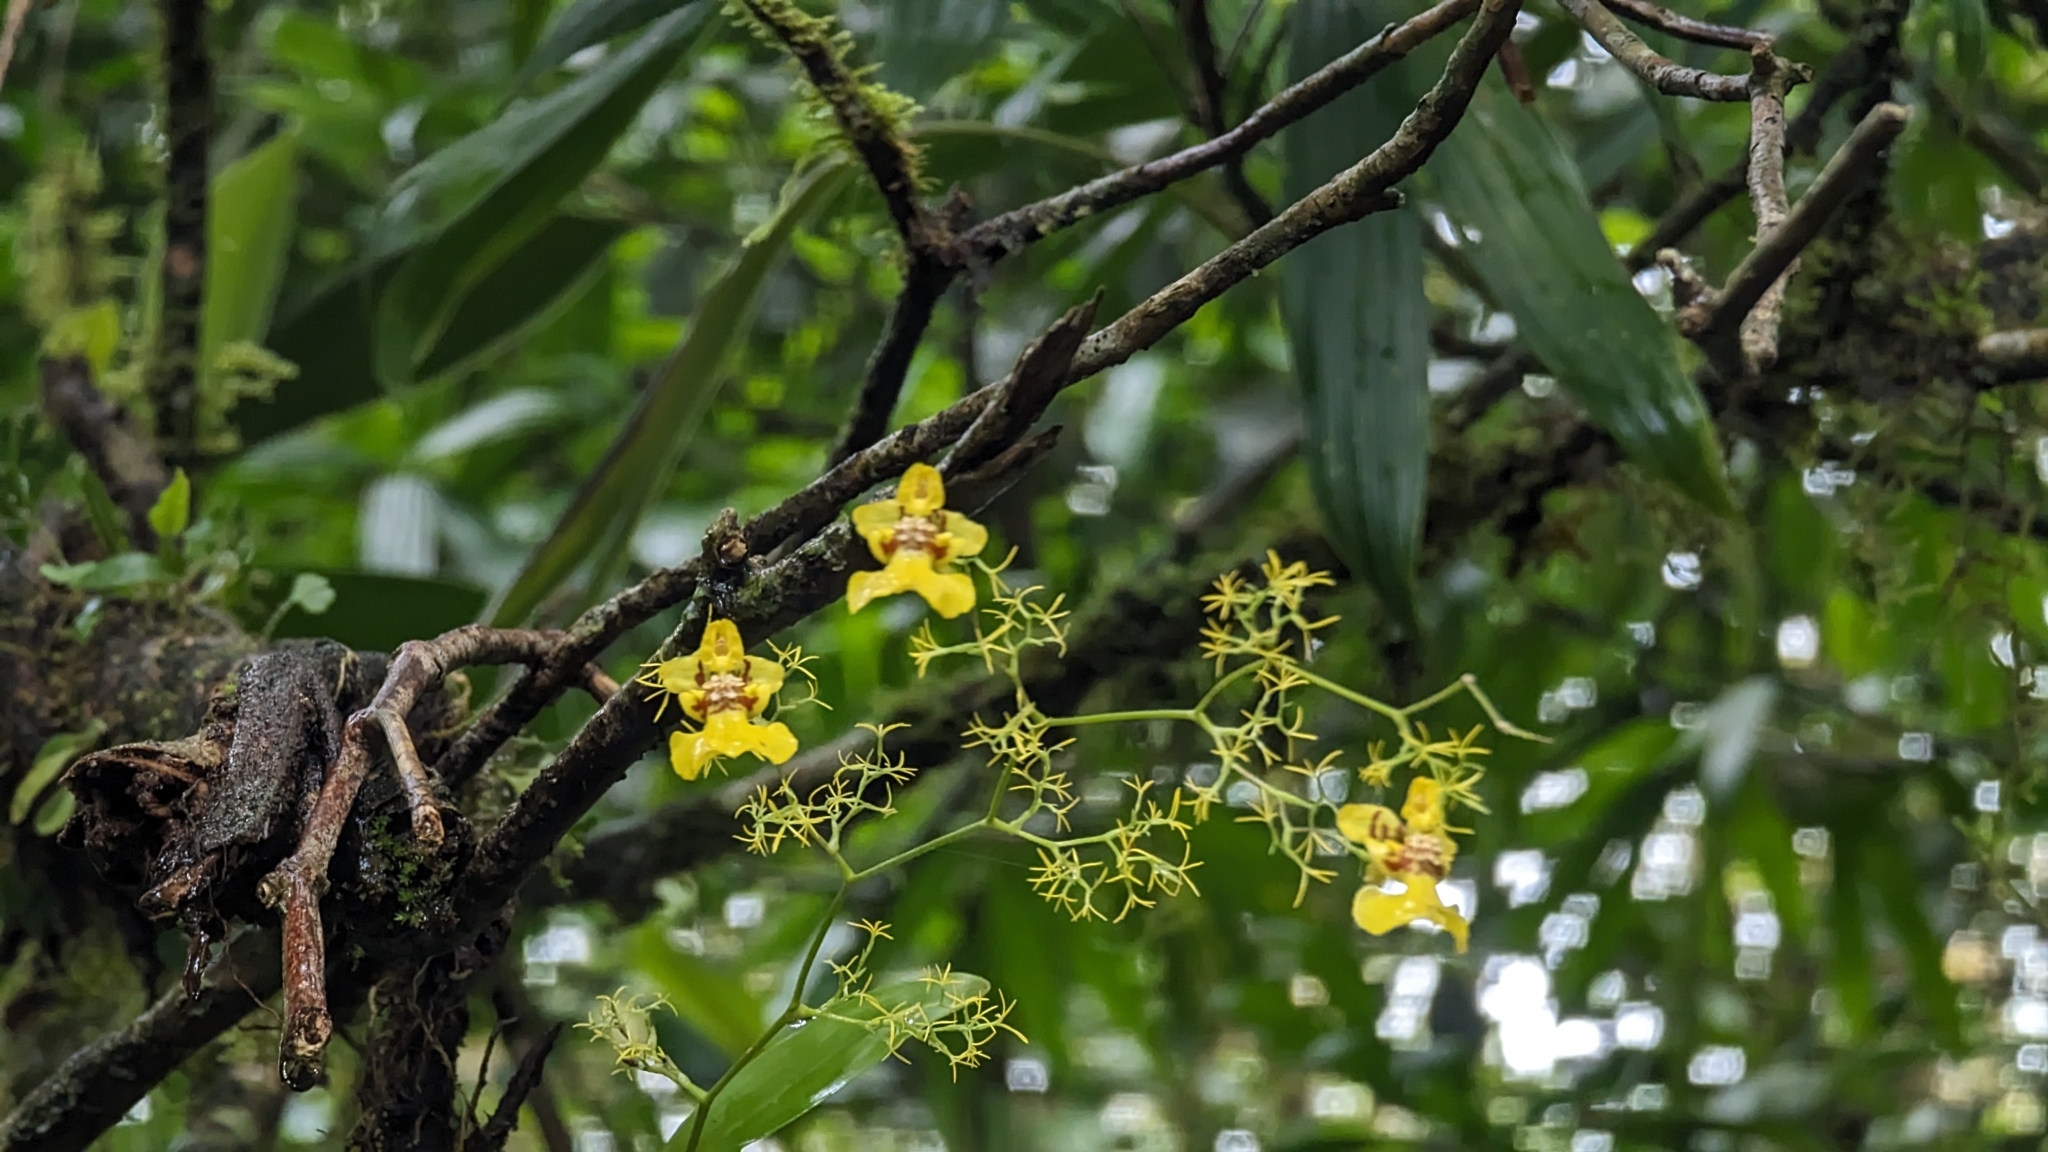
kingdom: Plantae
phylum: Tracheophyta
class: Liliopsida
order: Asparagales
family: Orchidaceae
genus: Oncidium
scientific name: Oncidium bryolophotum
